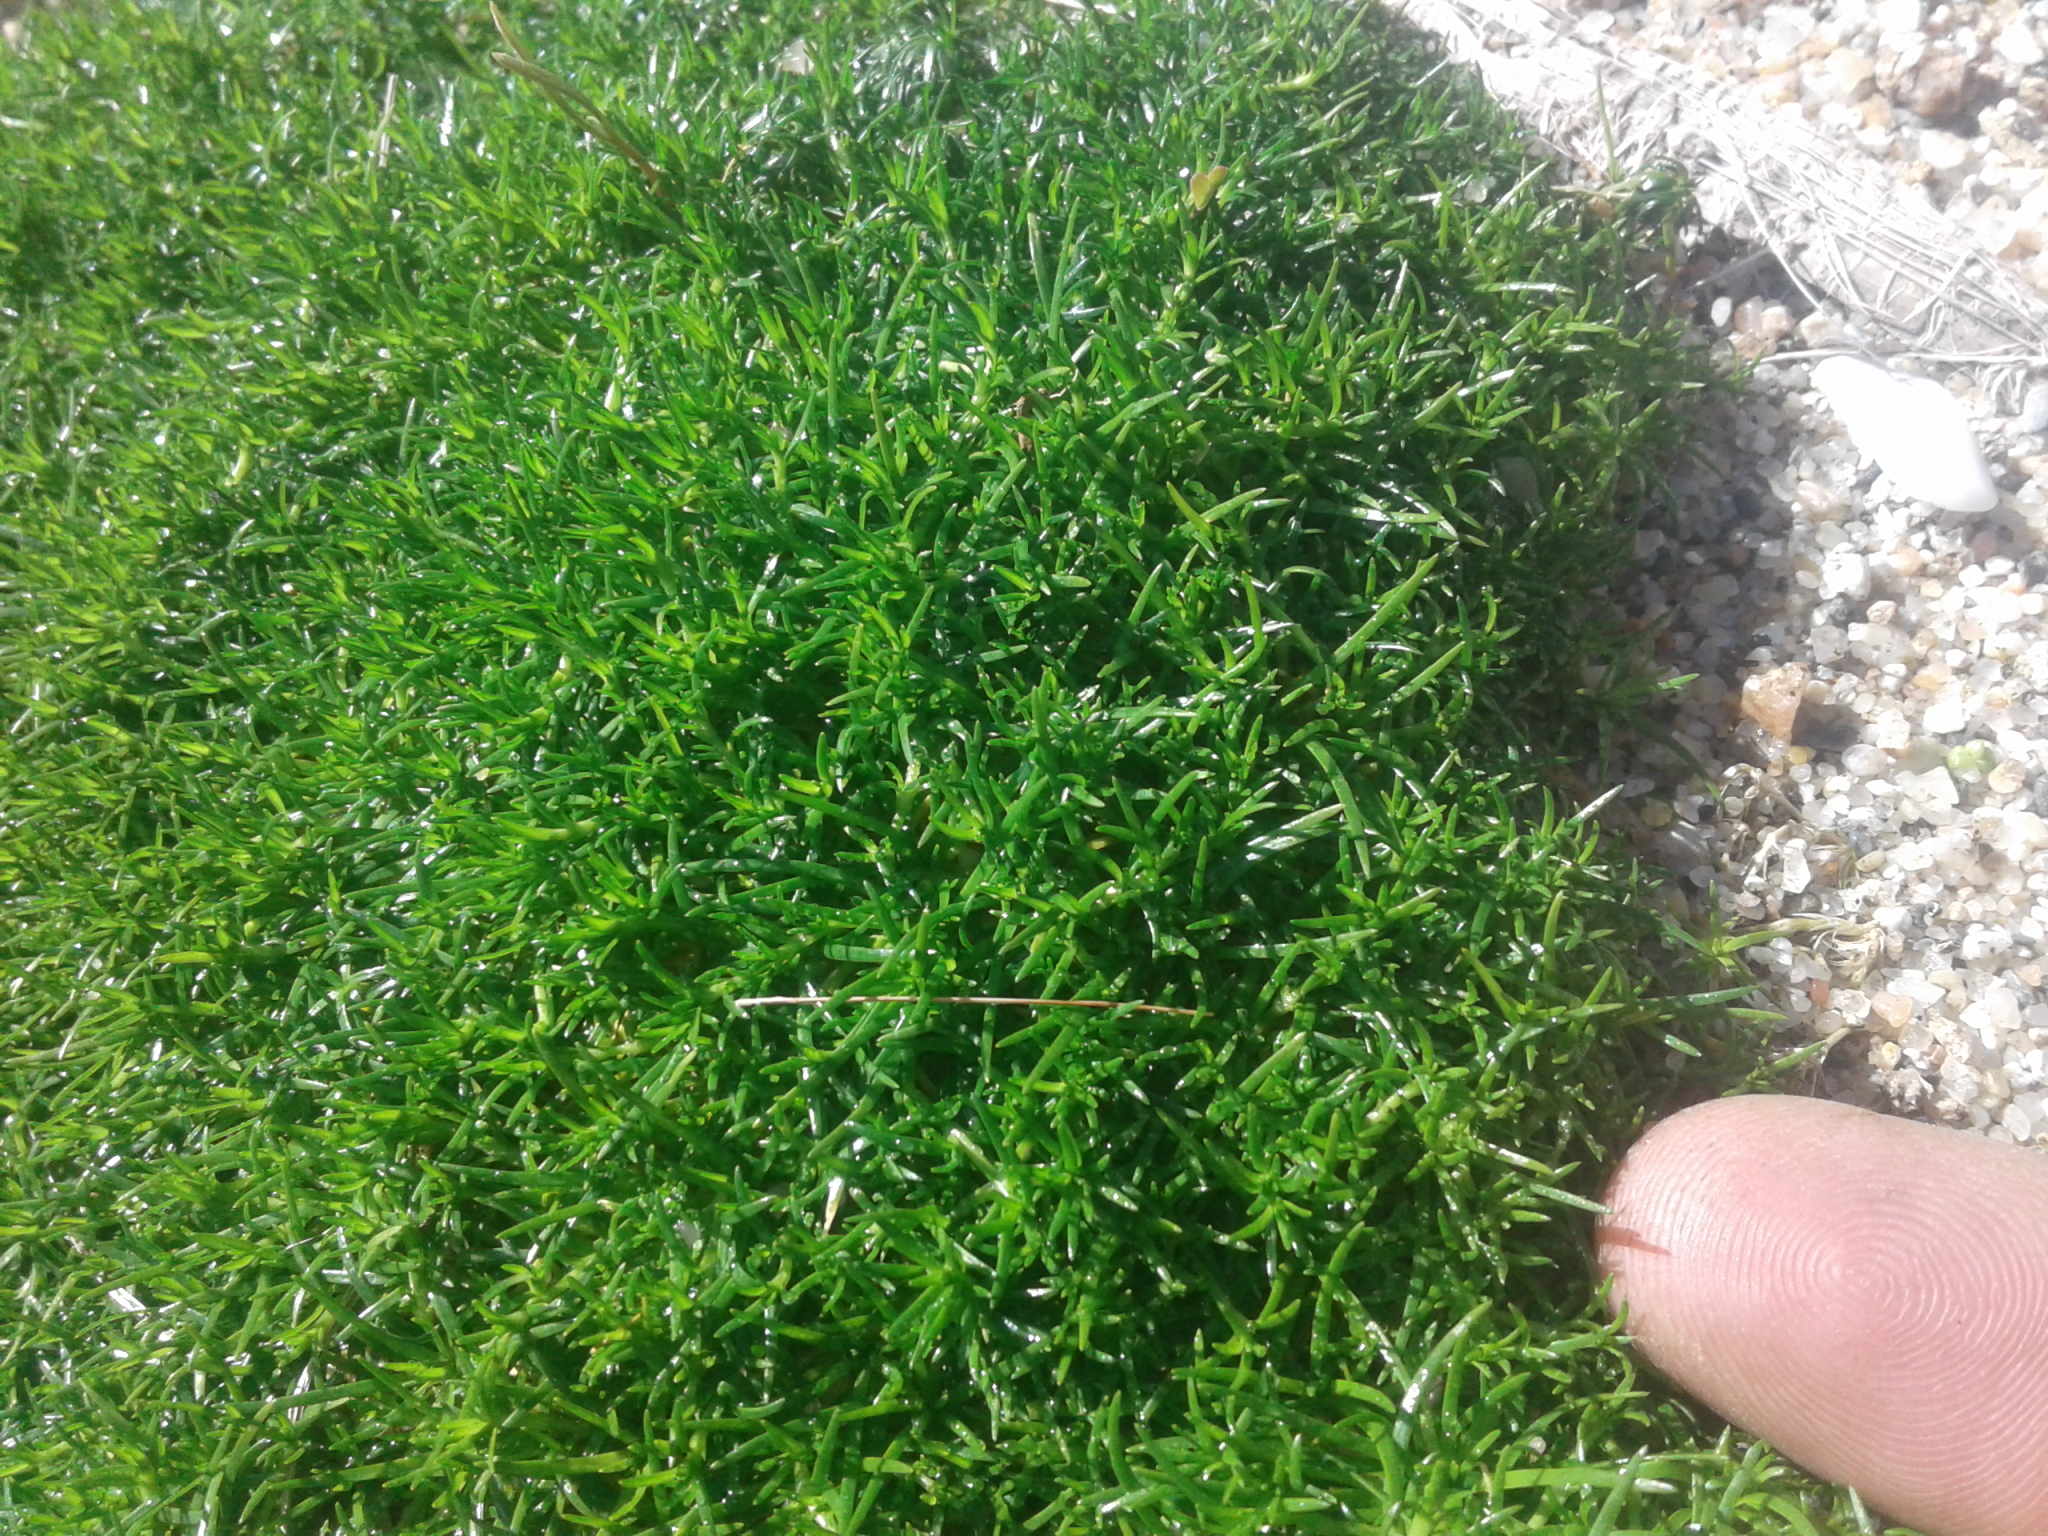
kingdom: Plantae
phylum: Tracheophyta
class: Magnoliopsida
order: Caryophyllales
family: Caryophyllaceae
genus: Sagina
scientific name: Sagina procumbens
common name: Procumbent pearlwort
